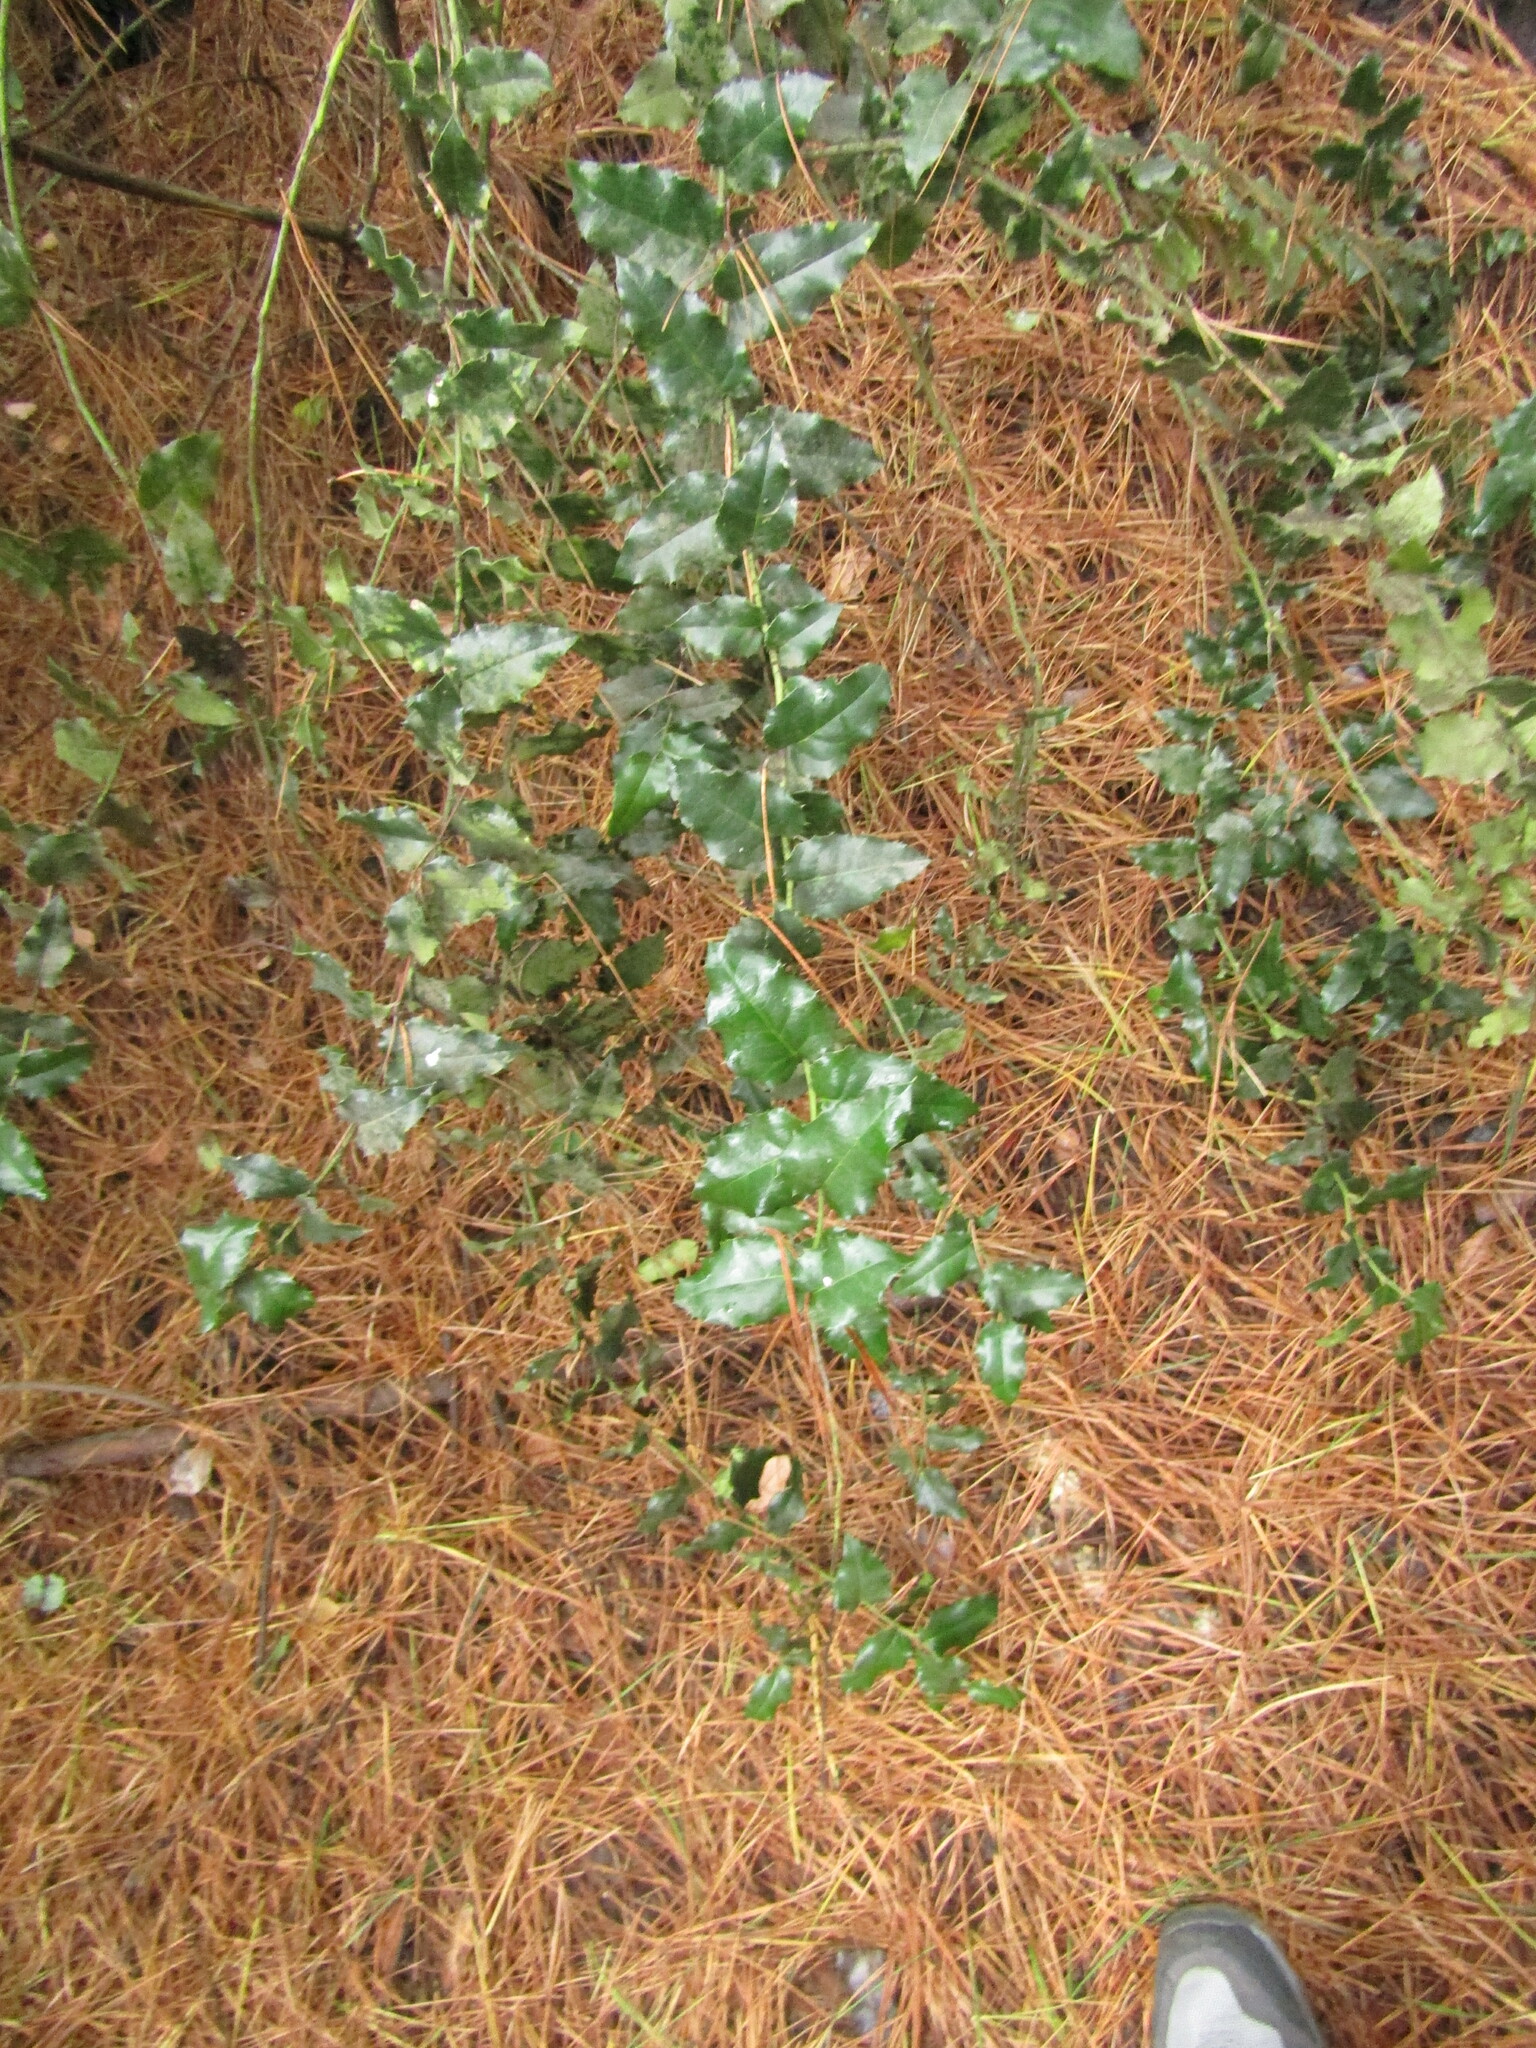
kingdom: Plantae
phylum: Tracheophyta
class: Magnoliopsida
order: Cardiopteridales
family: Cardiopteridaceae
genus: Citronella
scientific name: Citronella mucronata
